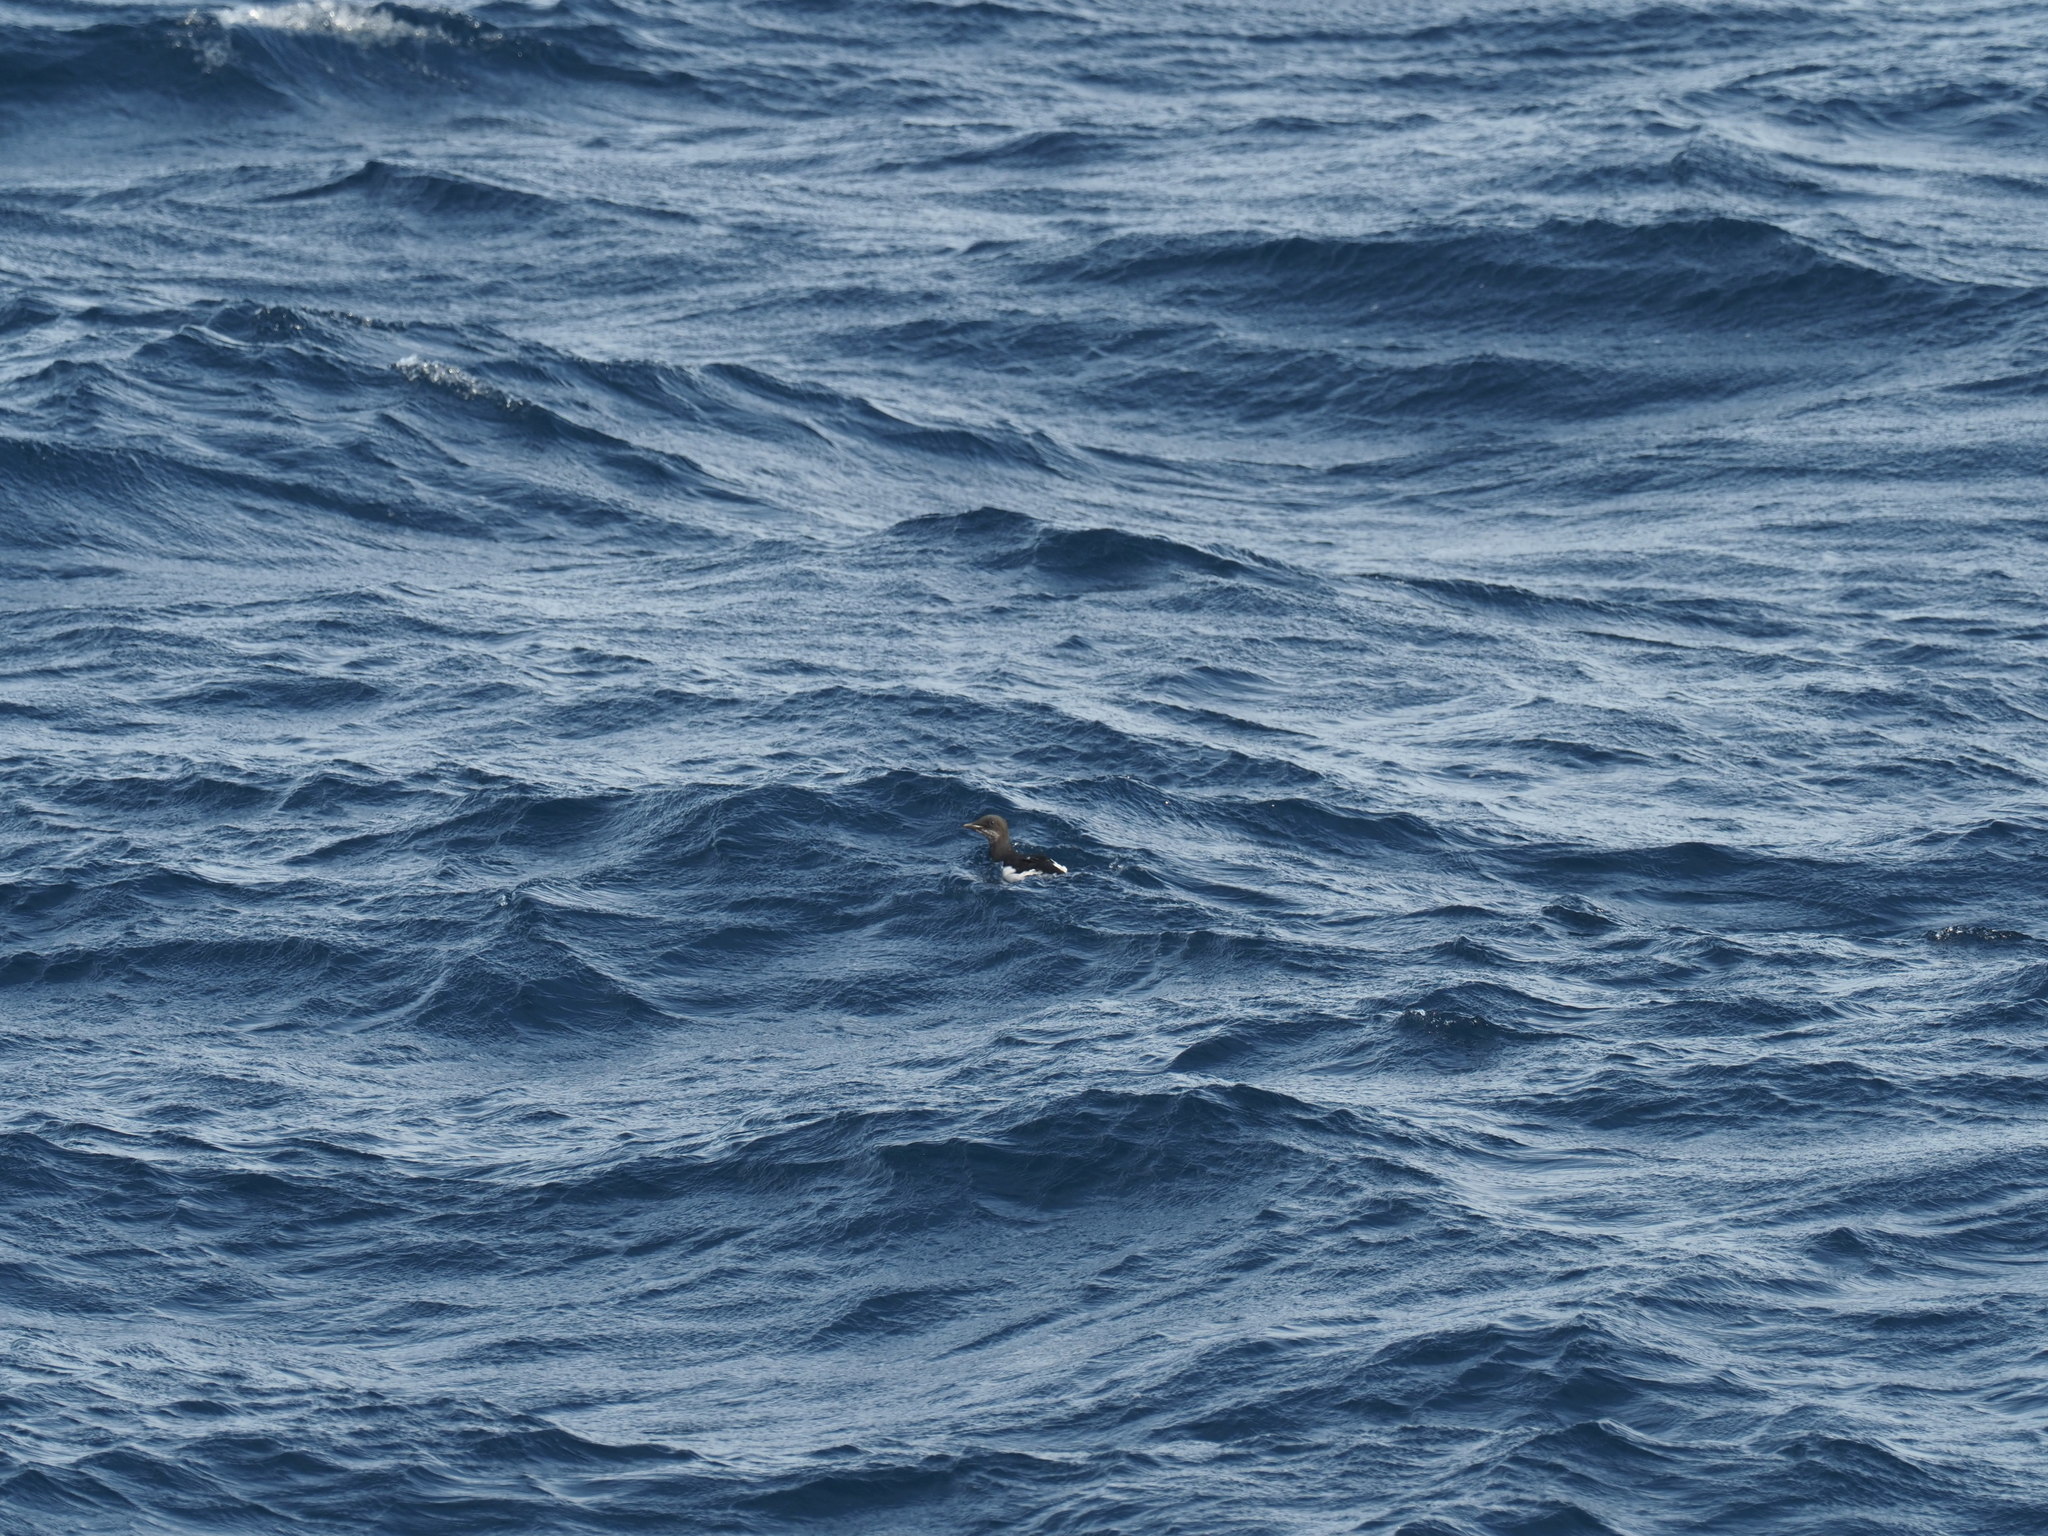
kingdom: Animalia
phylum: Chordata
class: Aves
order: Charadriiformes
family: Alcidae
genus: Uria
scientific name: Uria lomvia
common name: Thick-billed murre
